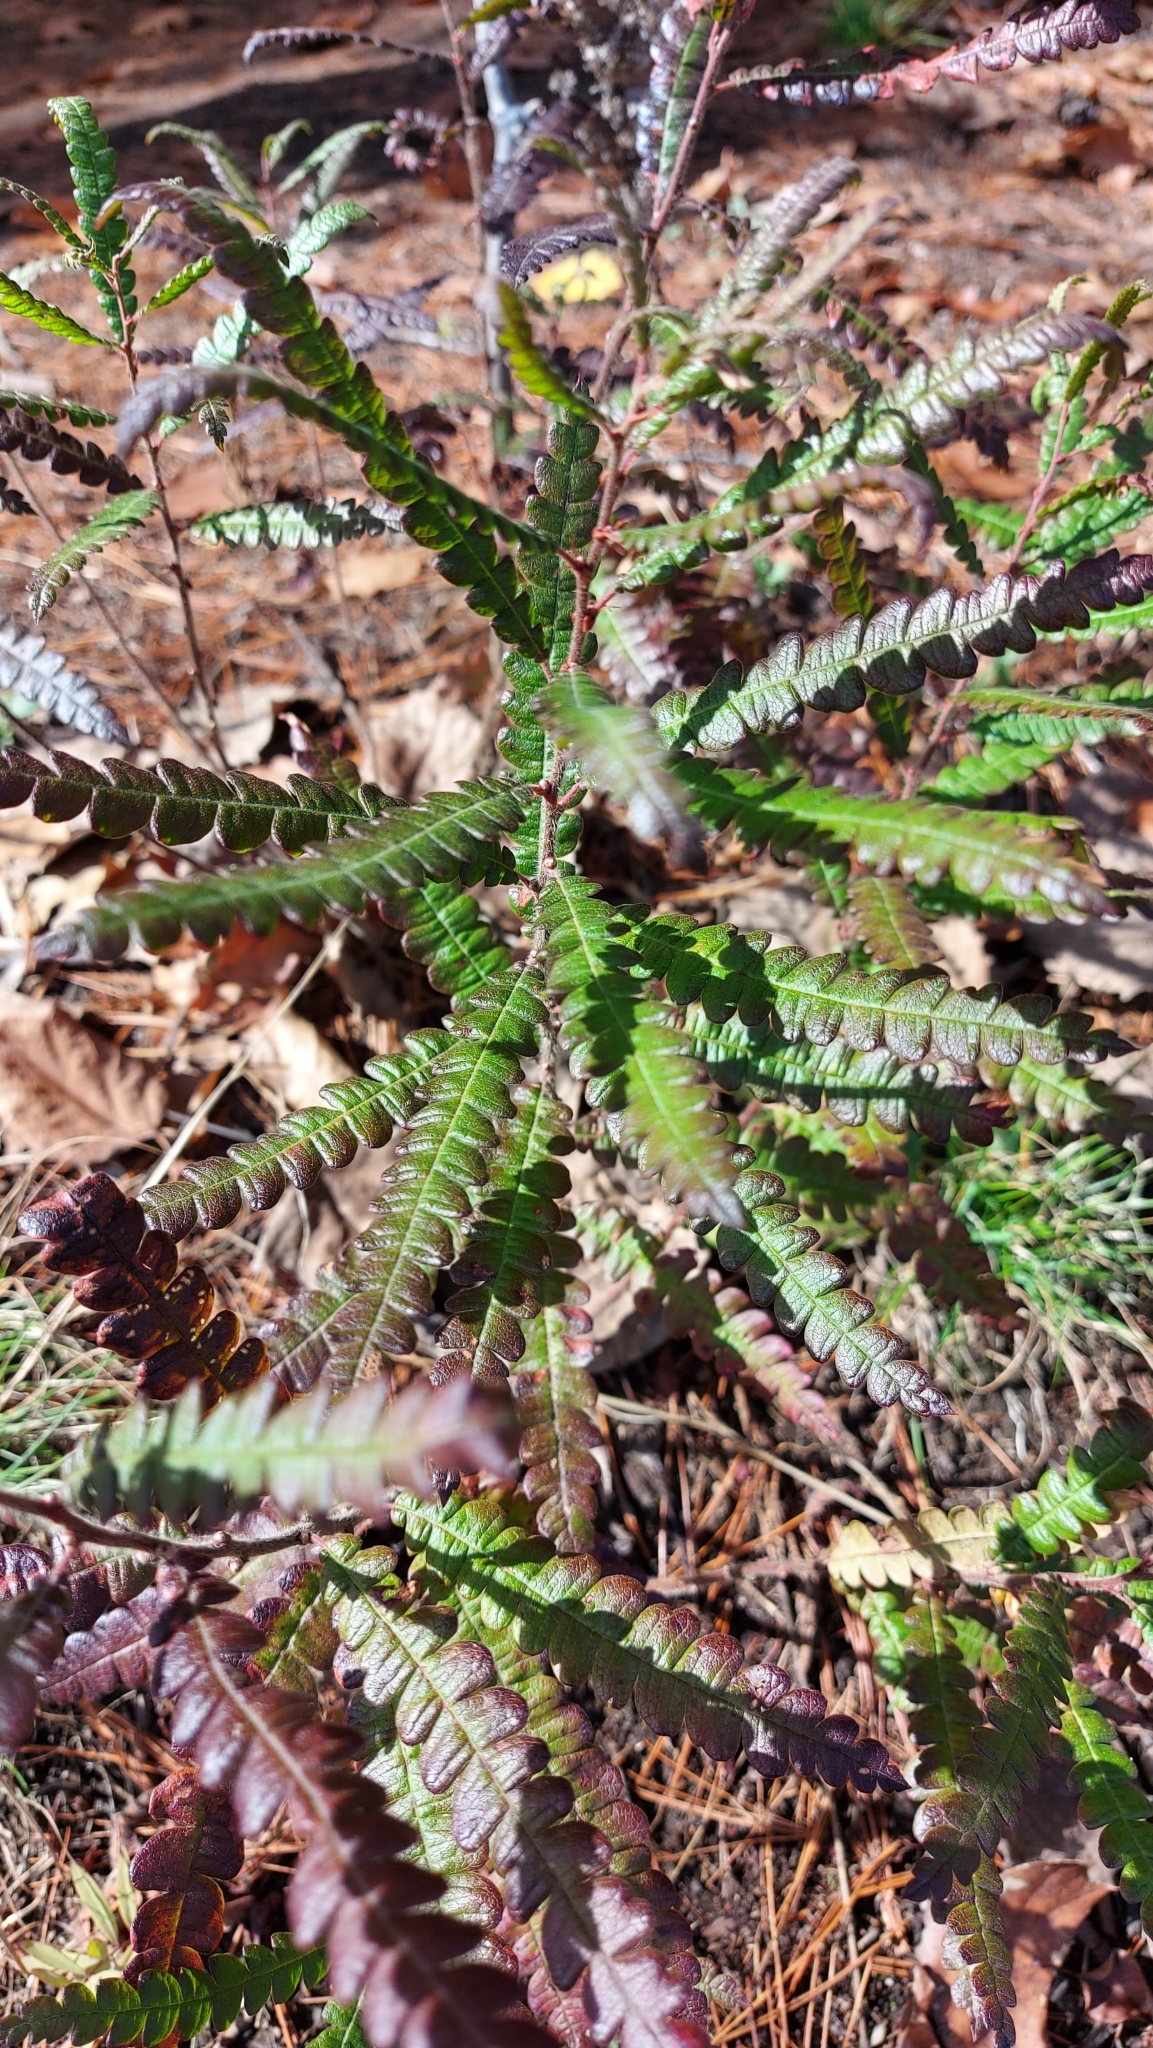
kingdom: Plantae
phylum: Tracheophyta
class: Magnoliopsida
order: Fagales
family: Myricaceae
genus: Comptonia
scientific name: Comptonia peregrina
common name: Sweet-fern
